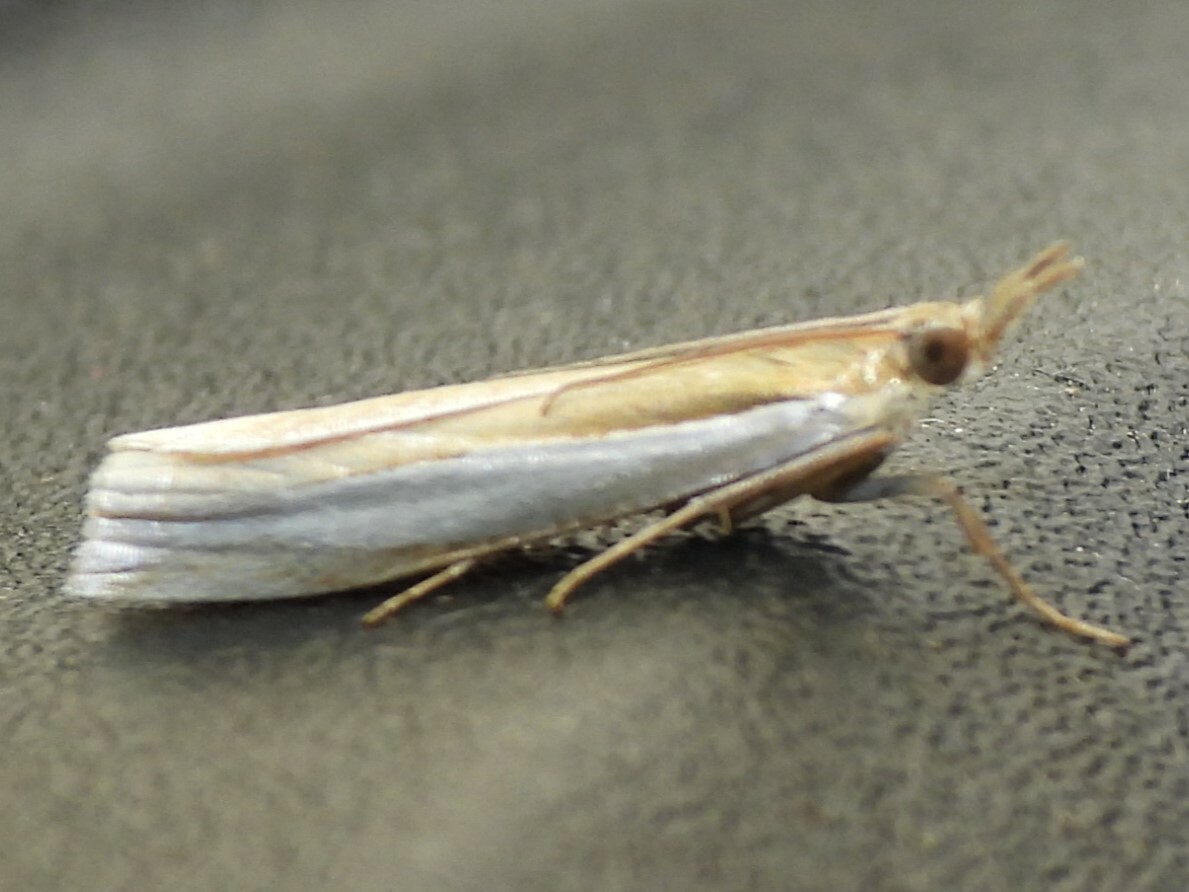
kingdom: Animalia
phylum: Arthropoda
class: Insecta
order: Lepidoptera
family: Crambidae
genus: Crambus
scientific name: Crambus leachellus
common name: Leach's grass-veneer
